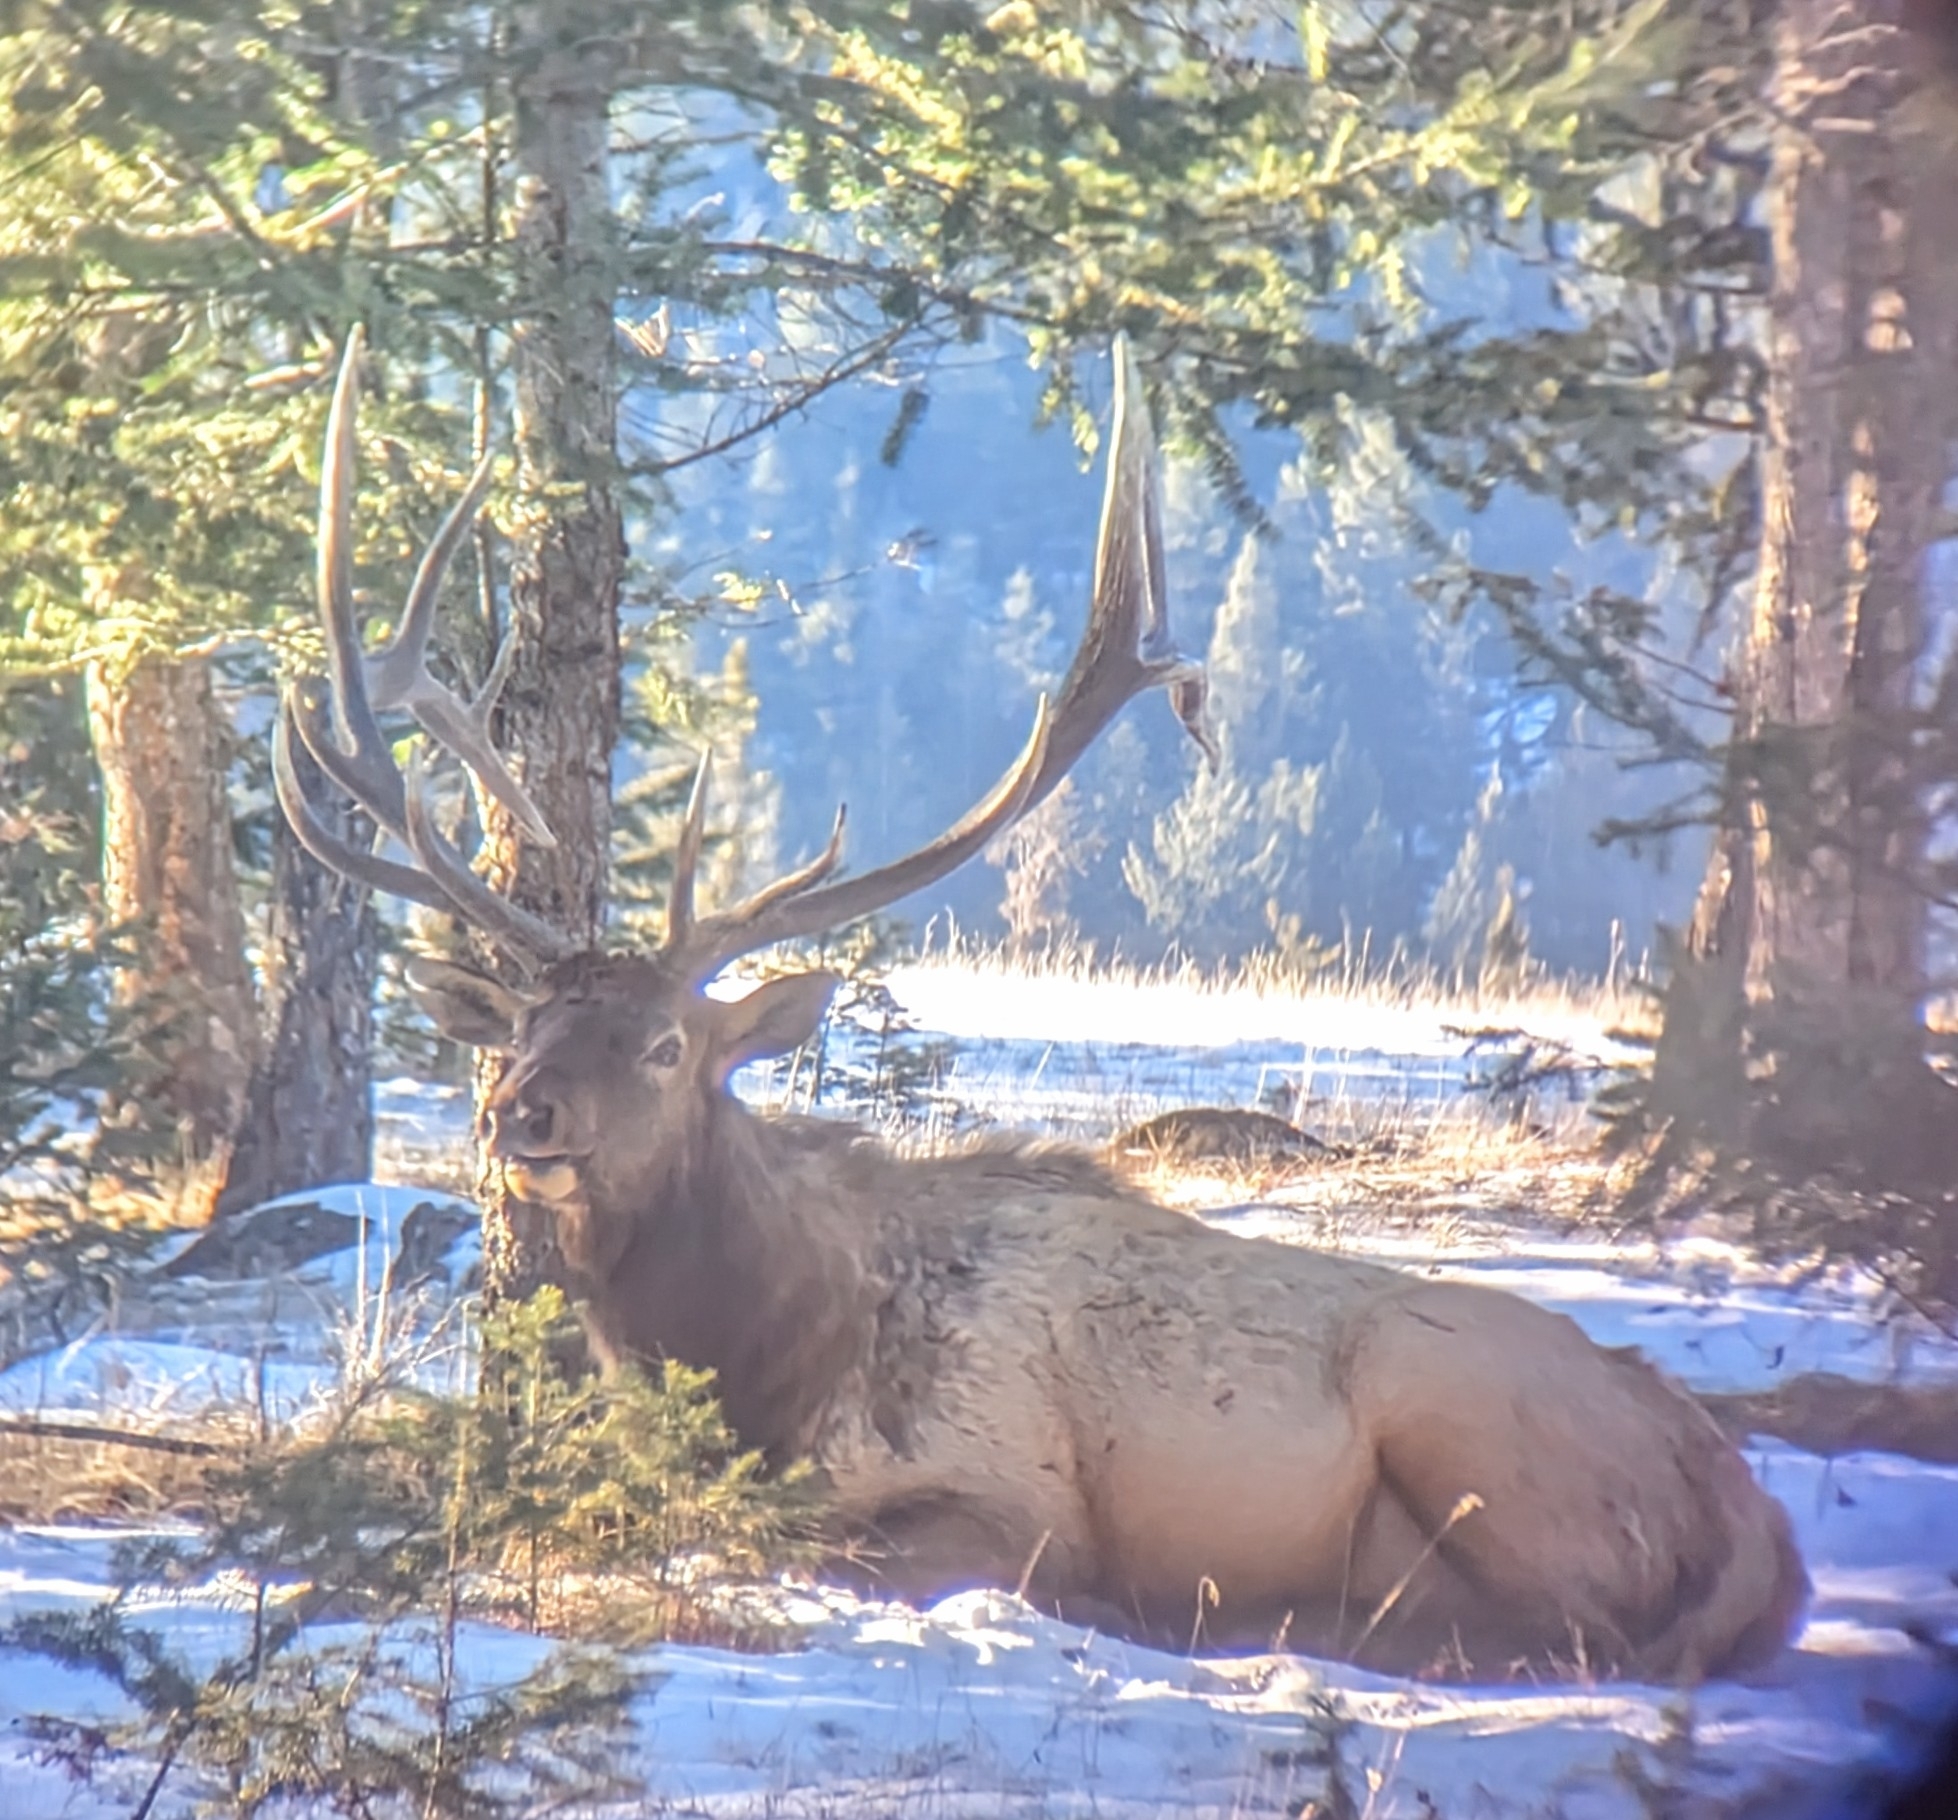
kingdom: Animalia
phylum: Chordata
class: Mammalia
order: Artiodactyla
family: Cervidae
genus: Cervus
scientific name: Cervus elaphus
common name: Red deer
